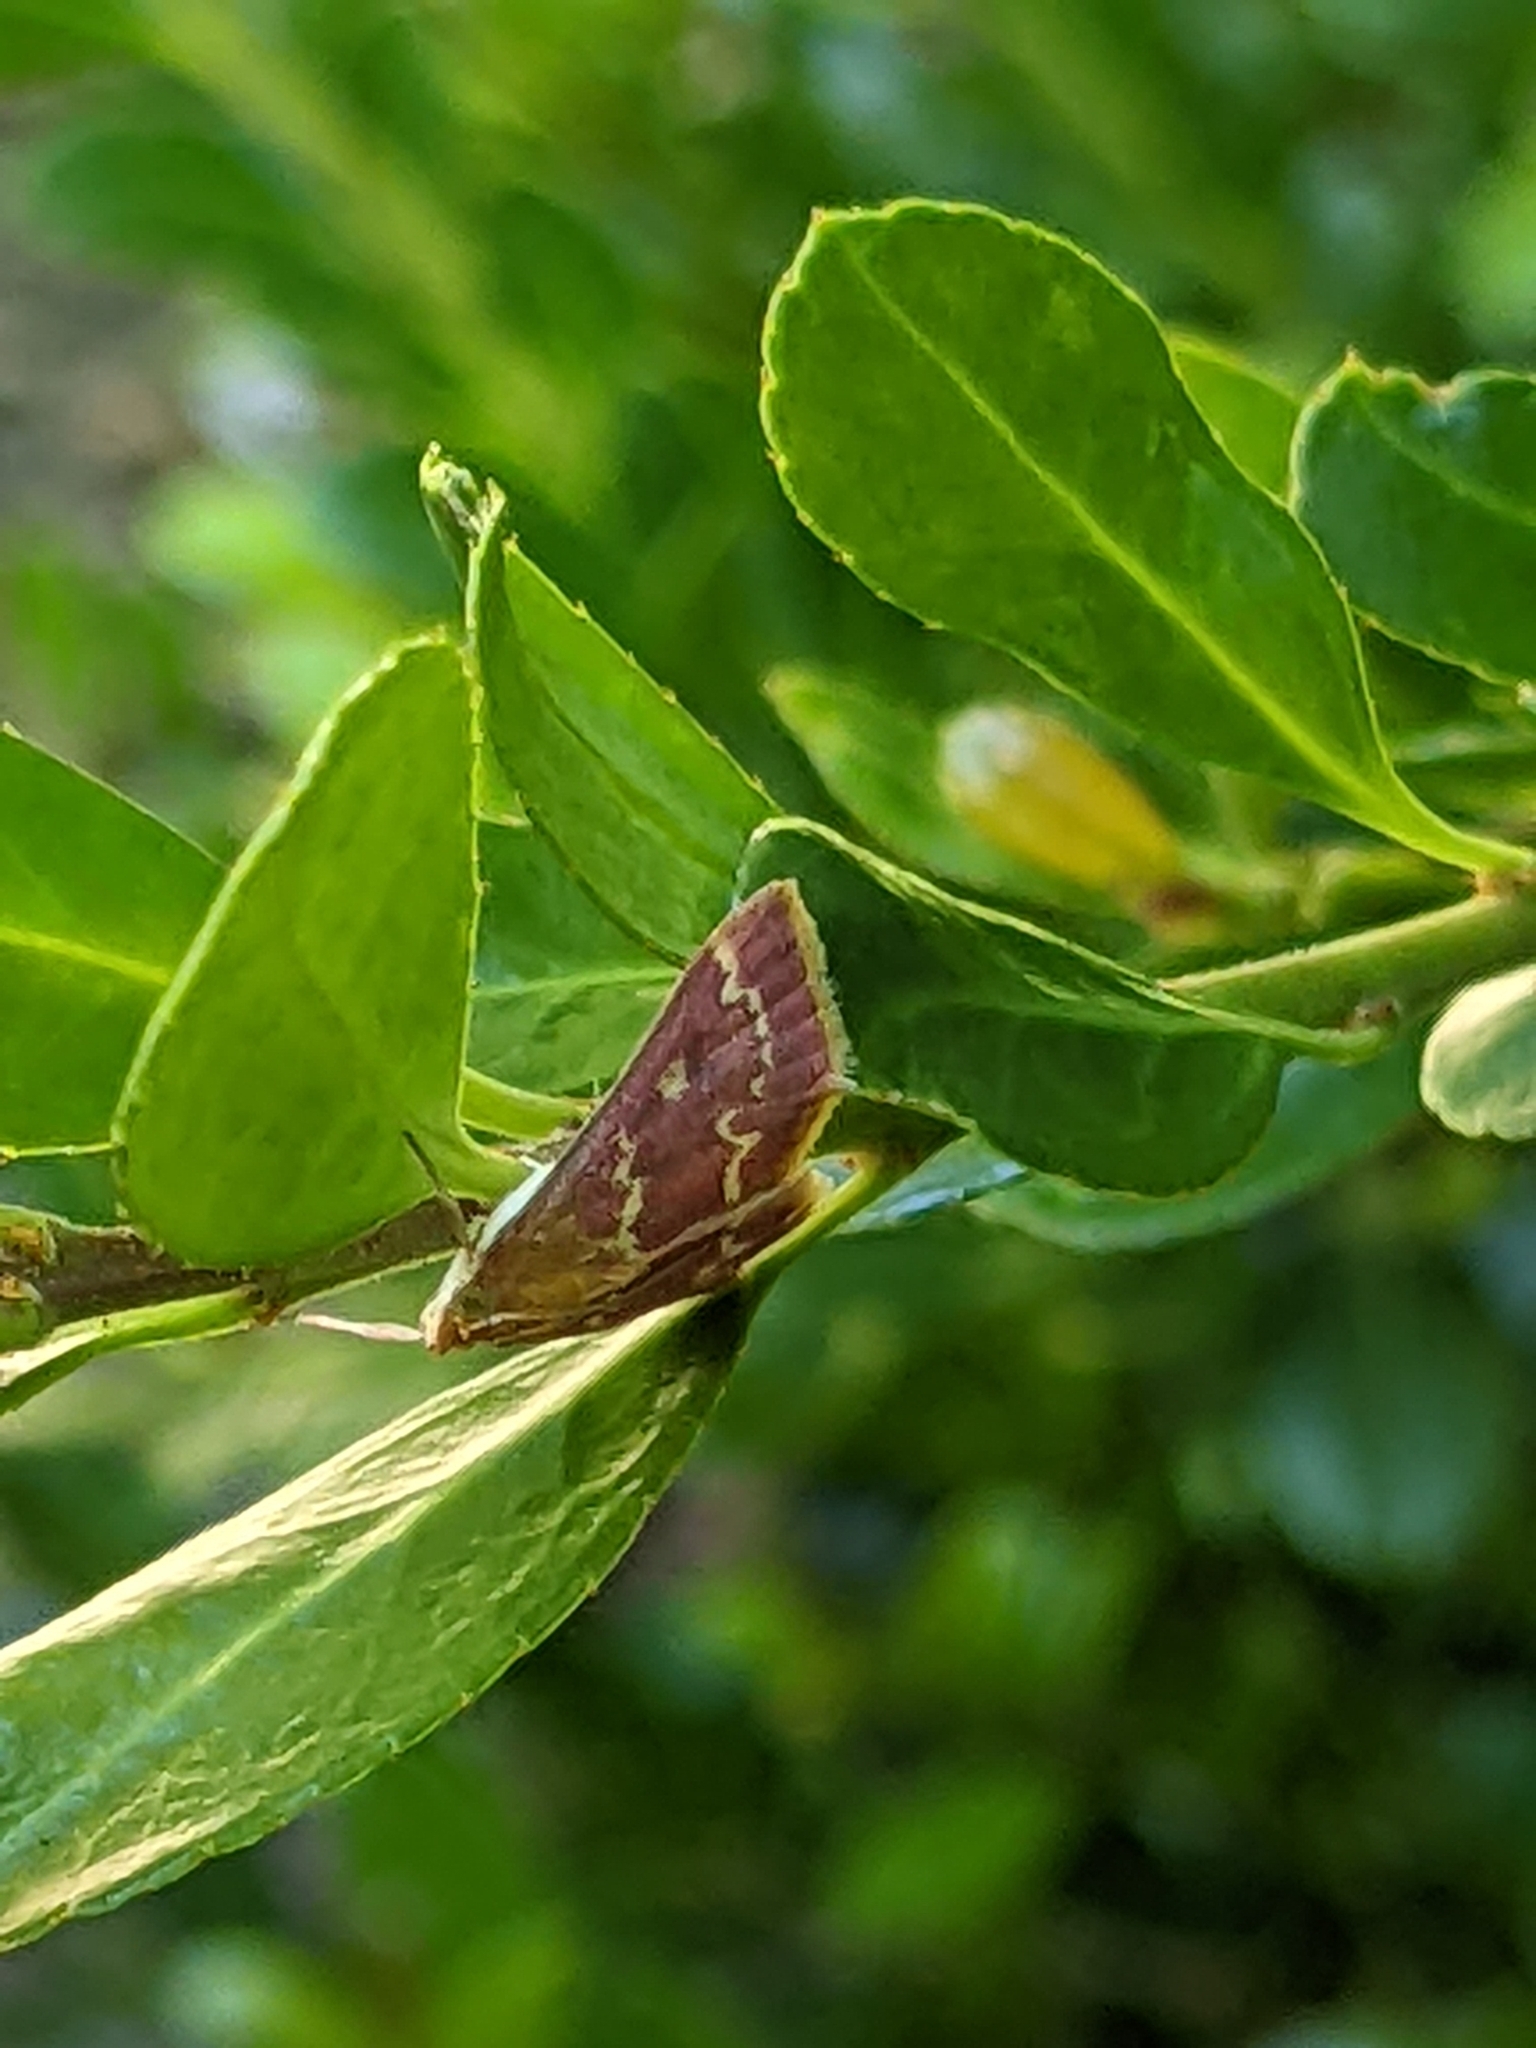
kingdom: Animalia
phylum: Arthropoda
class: Insecta
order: Lepidoptera
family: Crambidae
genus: Pyrausta
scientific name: Pyrausta signatalis
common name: Raspberry pyrausta moth
